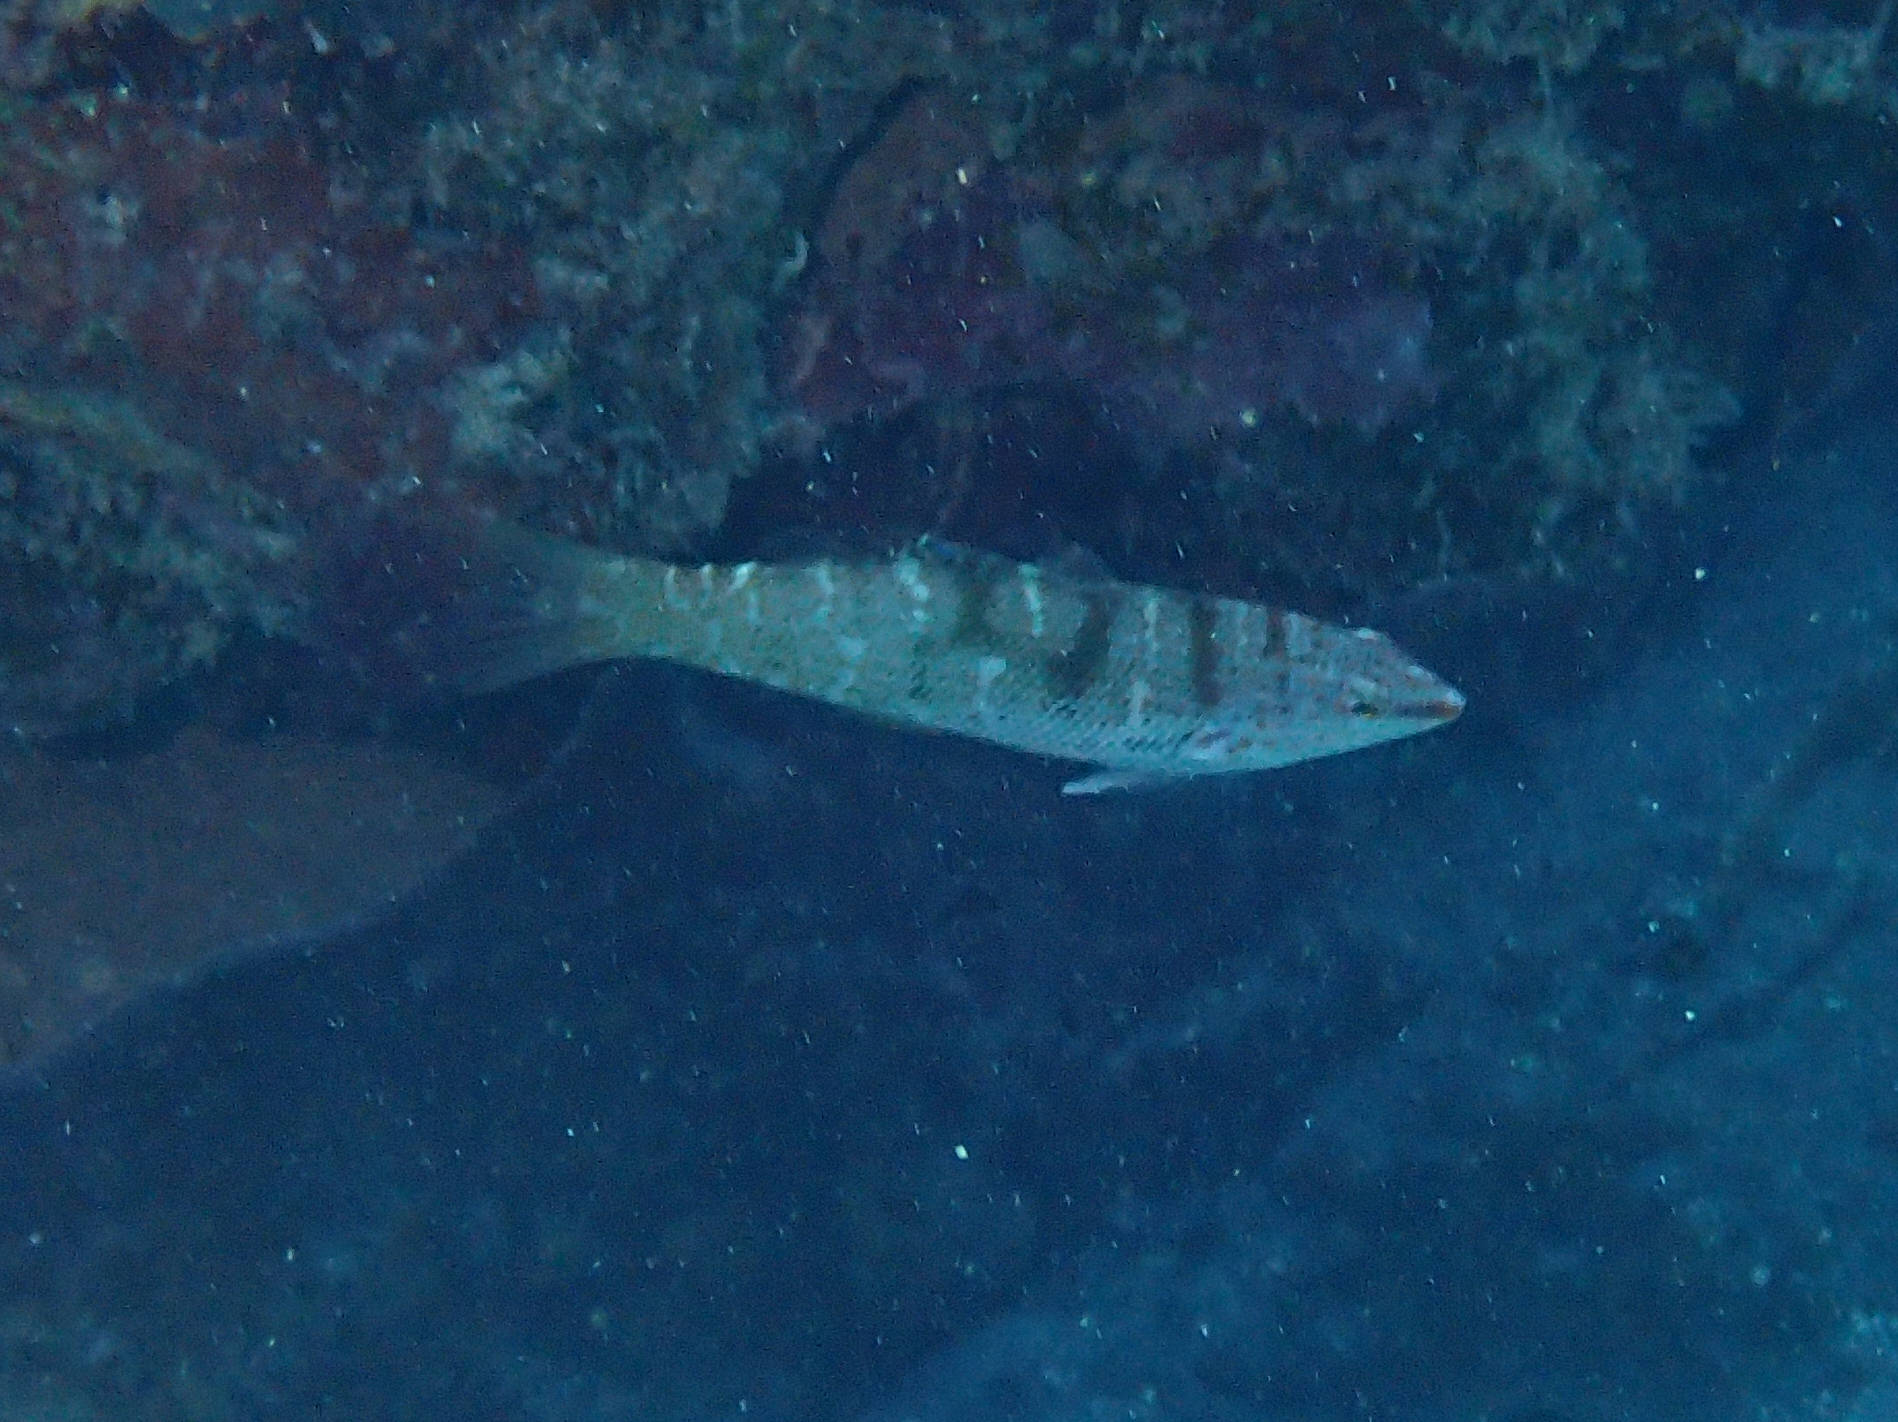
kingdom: Animalia
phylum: Chordata
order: Perciformes
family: Labridae
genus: Coris
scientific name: Coris batuensis
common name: Batu coris
